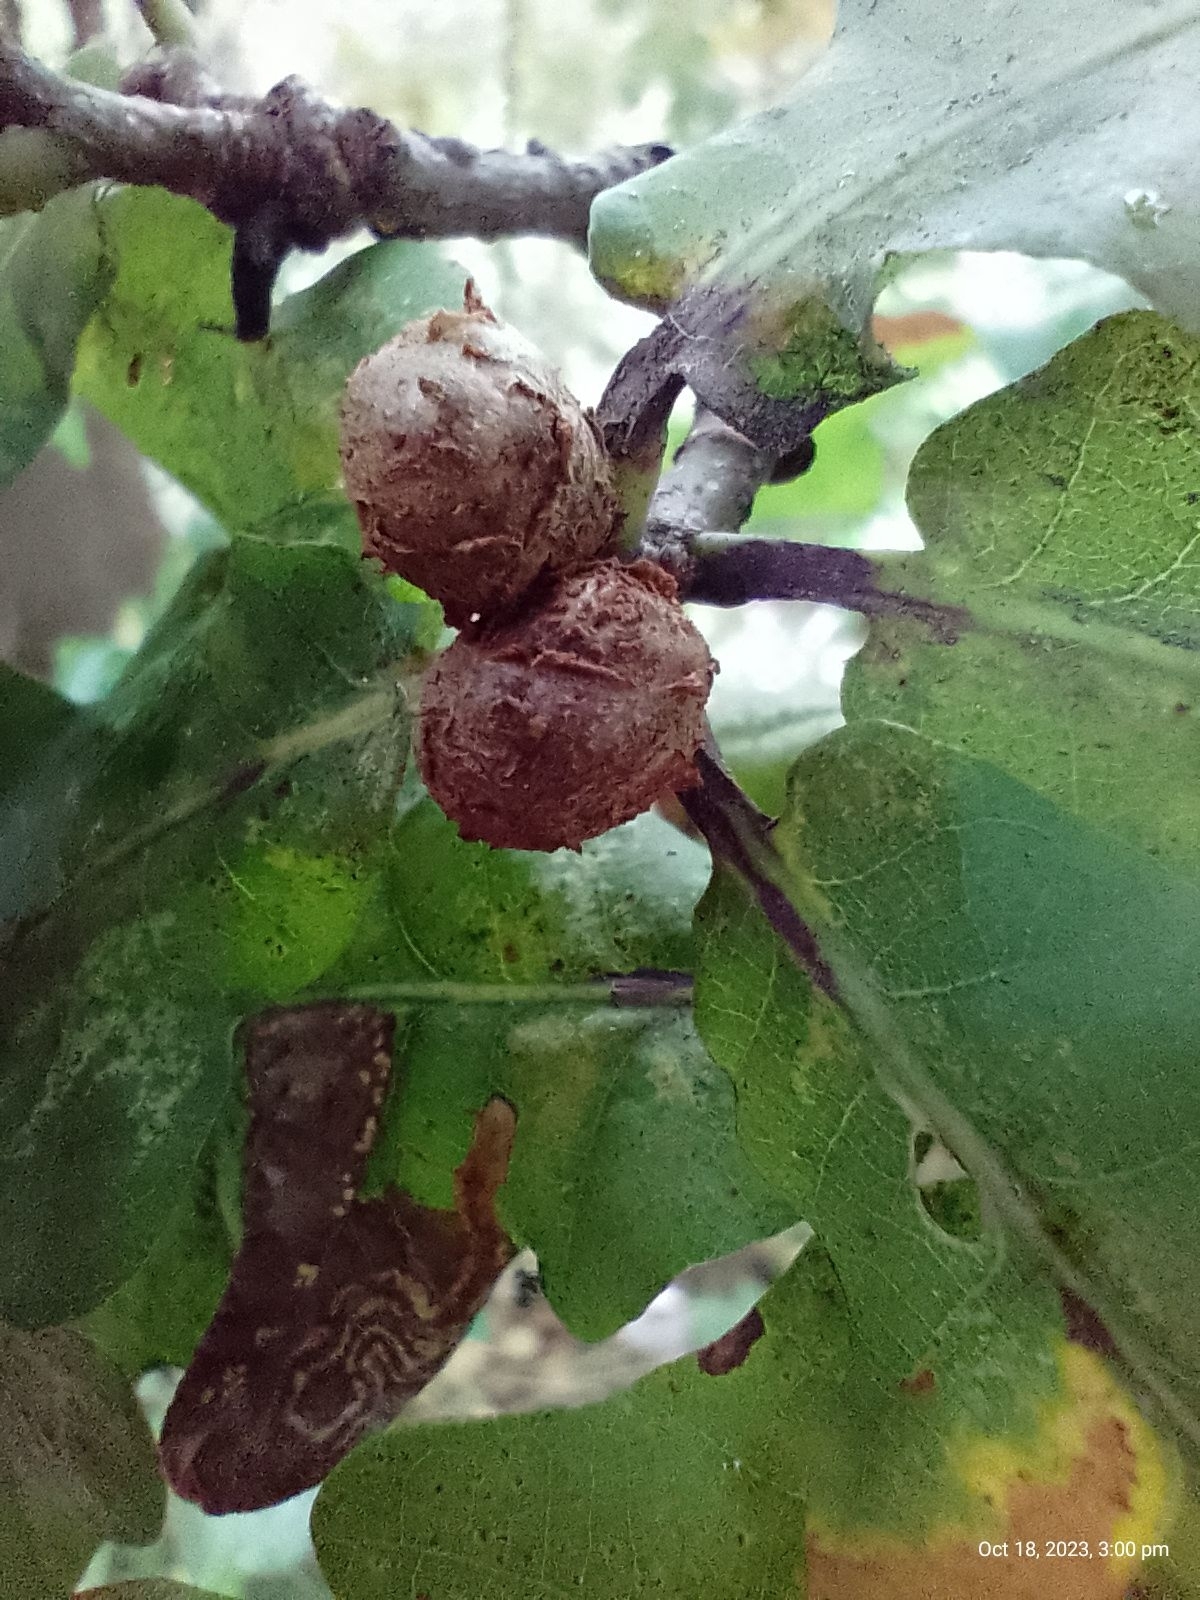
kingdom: Animalia
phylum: Arthropoda
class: Insecta
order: Hymenoptera
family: Cynipidae
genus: Andricus
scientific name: Andricus lignicolus
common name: Cola-nut gall
